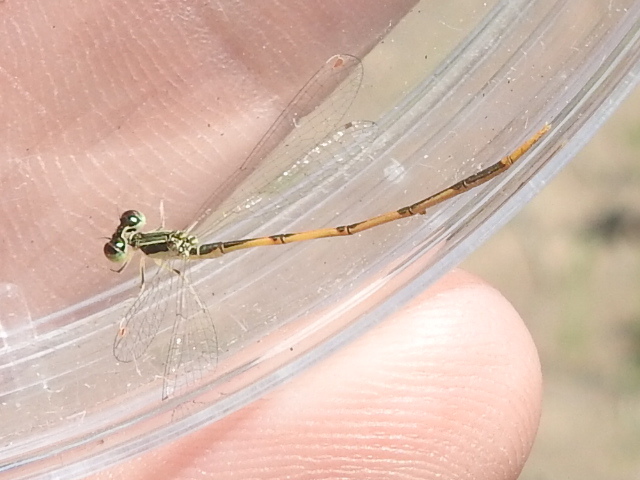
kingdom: Animalia
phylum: Arthropoda
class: Insecta
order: Odonata
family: Coenagrionidae
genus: Ischnura
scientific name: Ischnura hastata
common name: Citrine forktail
